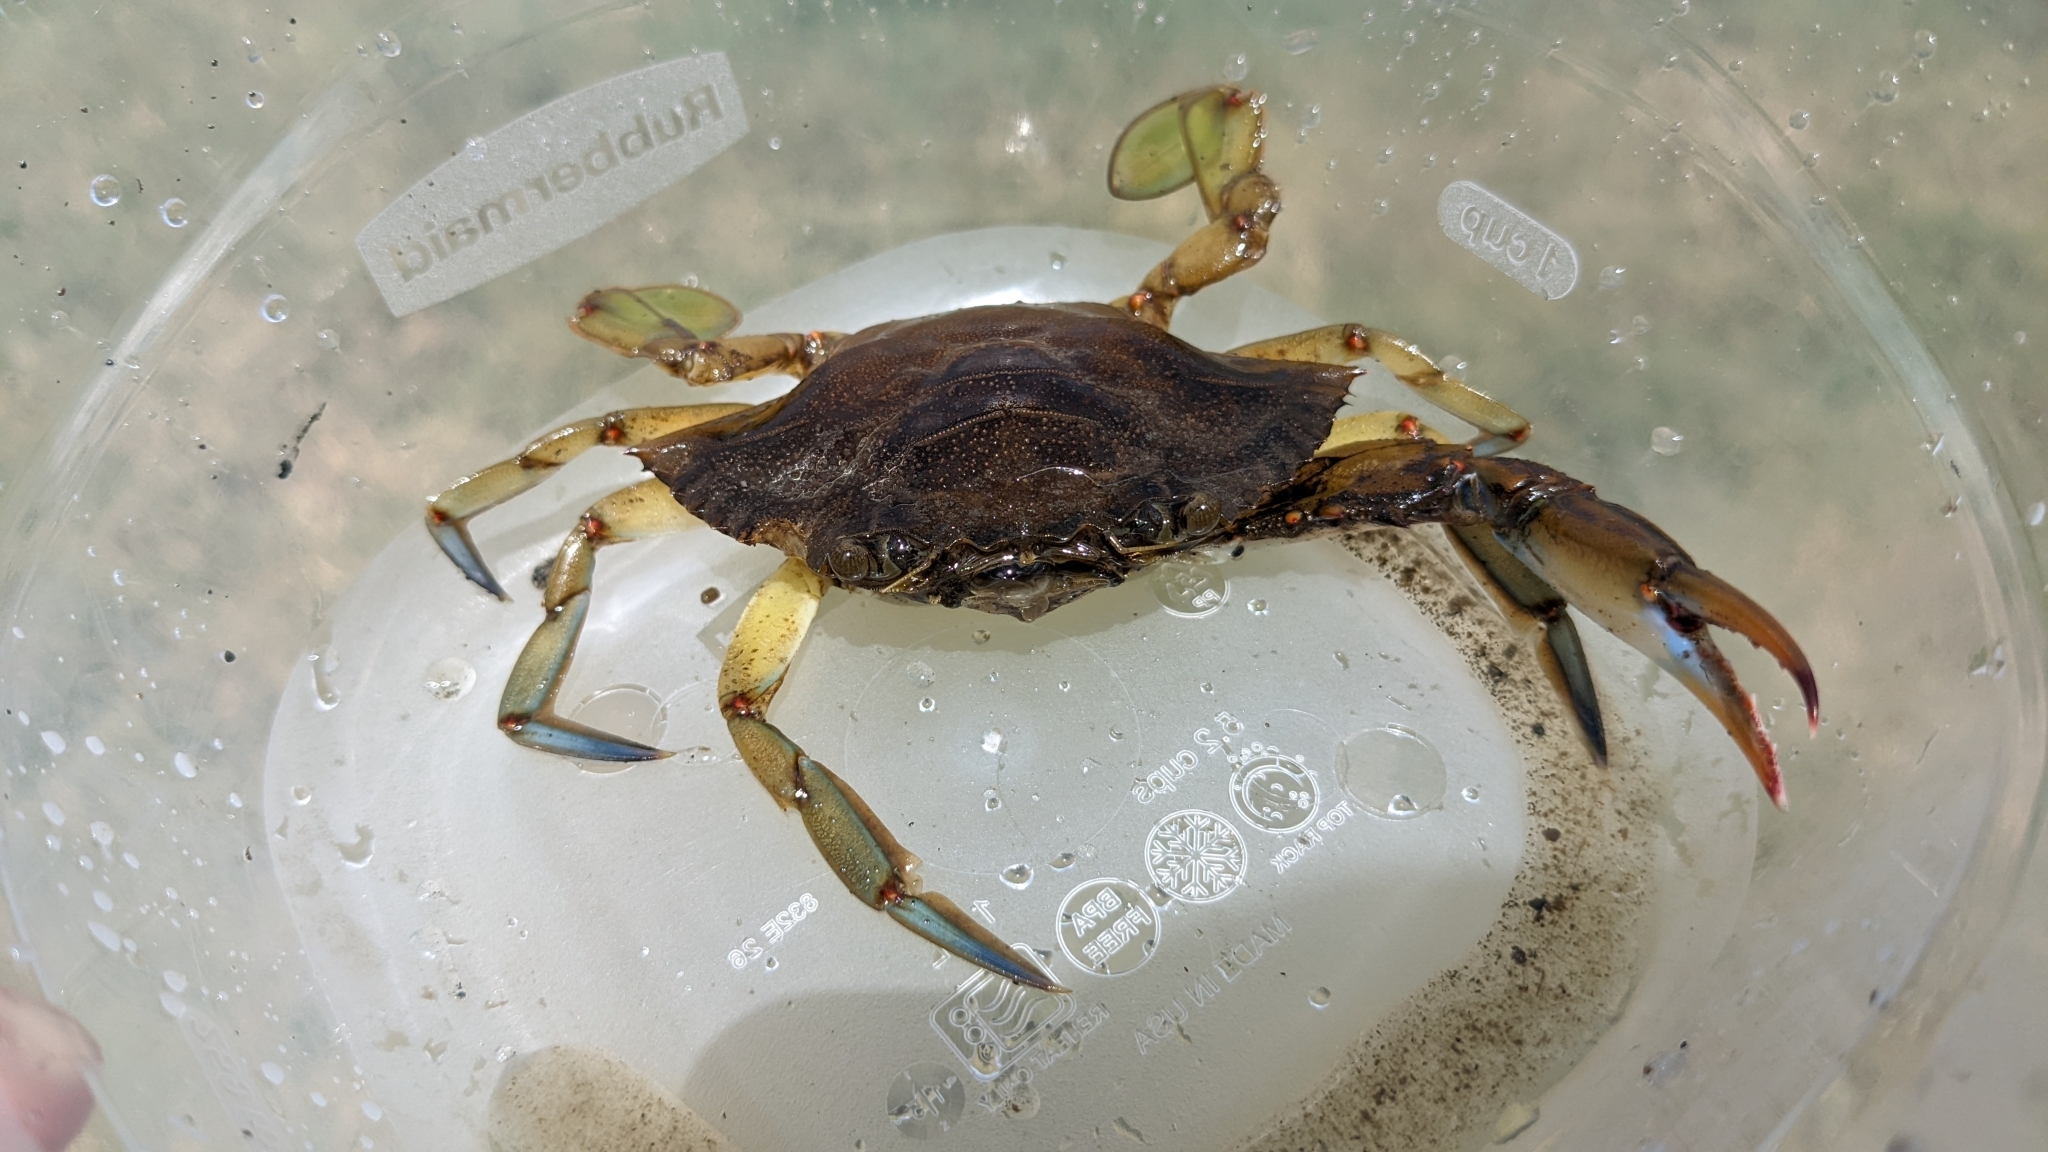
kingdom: Animalia
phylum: Arthropoda
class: Malacostraca
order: Decapoda
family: Portunidae
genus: Callinectes
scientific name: Callinectes sapidus
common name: Blue crab
